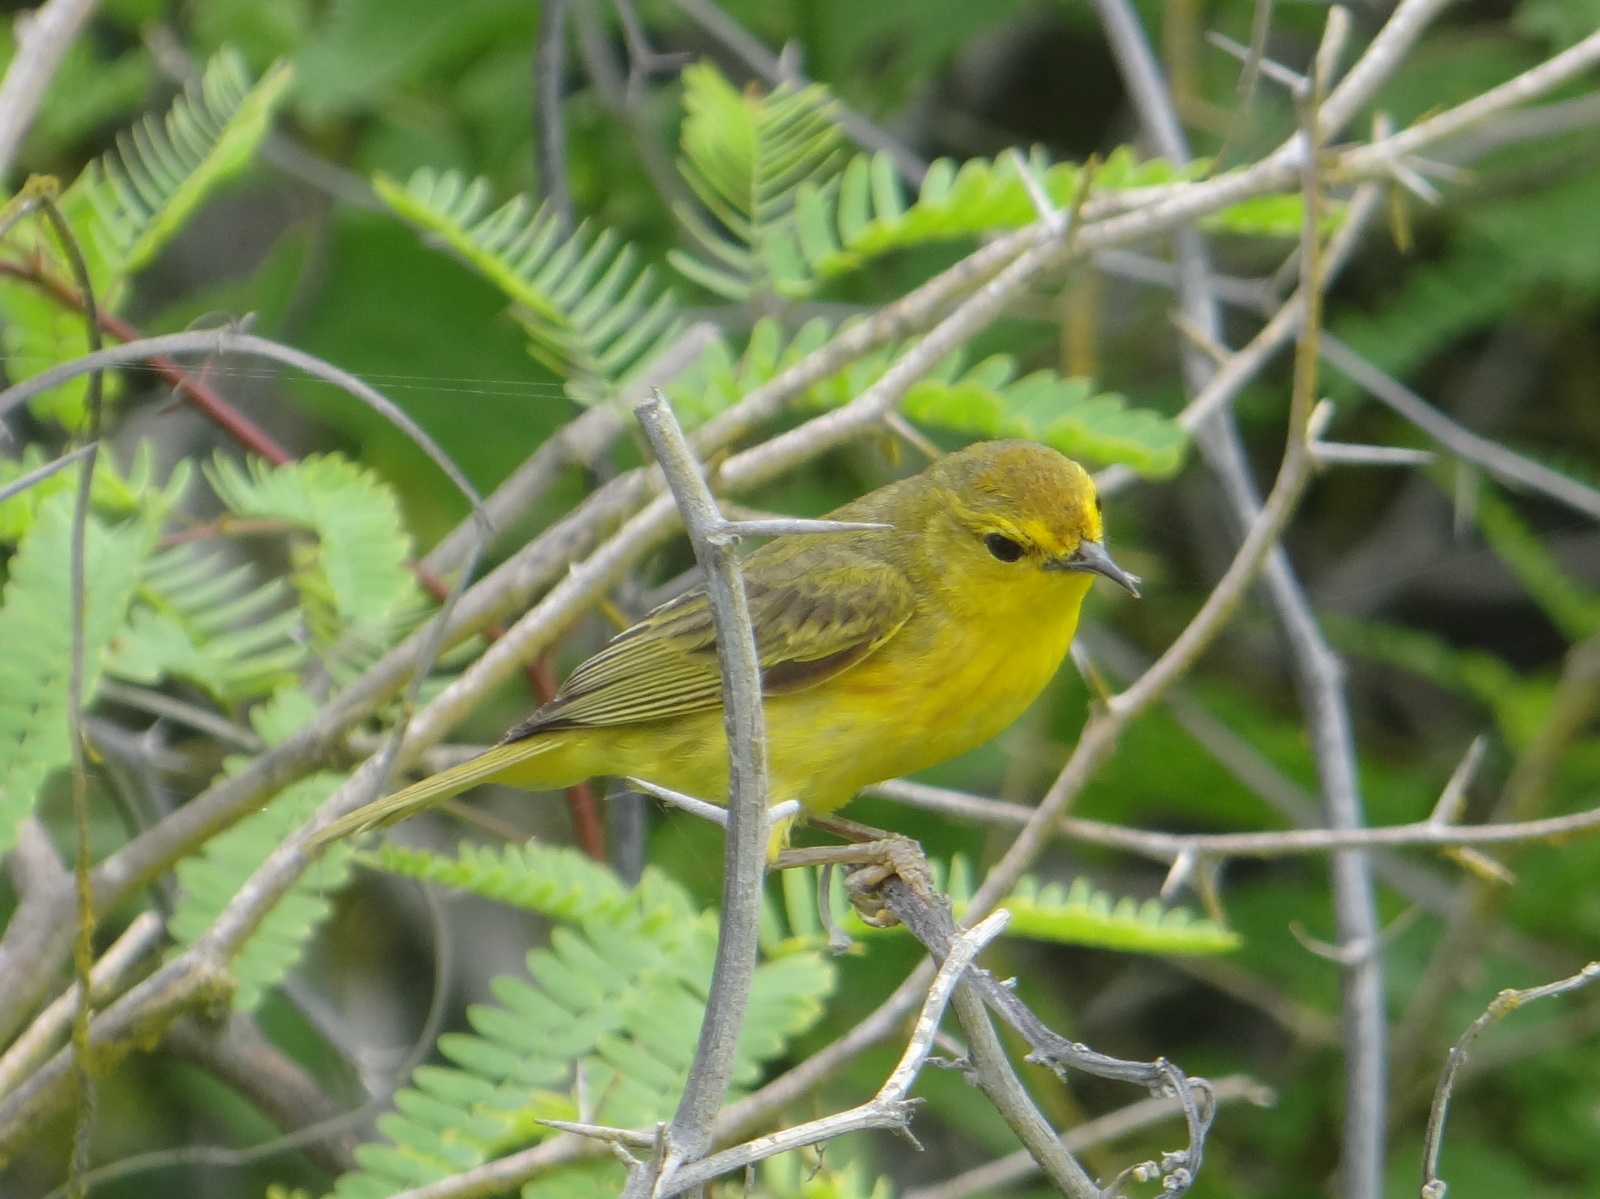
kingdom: Animalia
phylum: Chordata
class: Aves
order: Passeriformes
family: Parulidae
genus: Setophaga
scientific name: Setophaga petechia
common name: Yellow warbler
